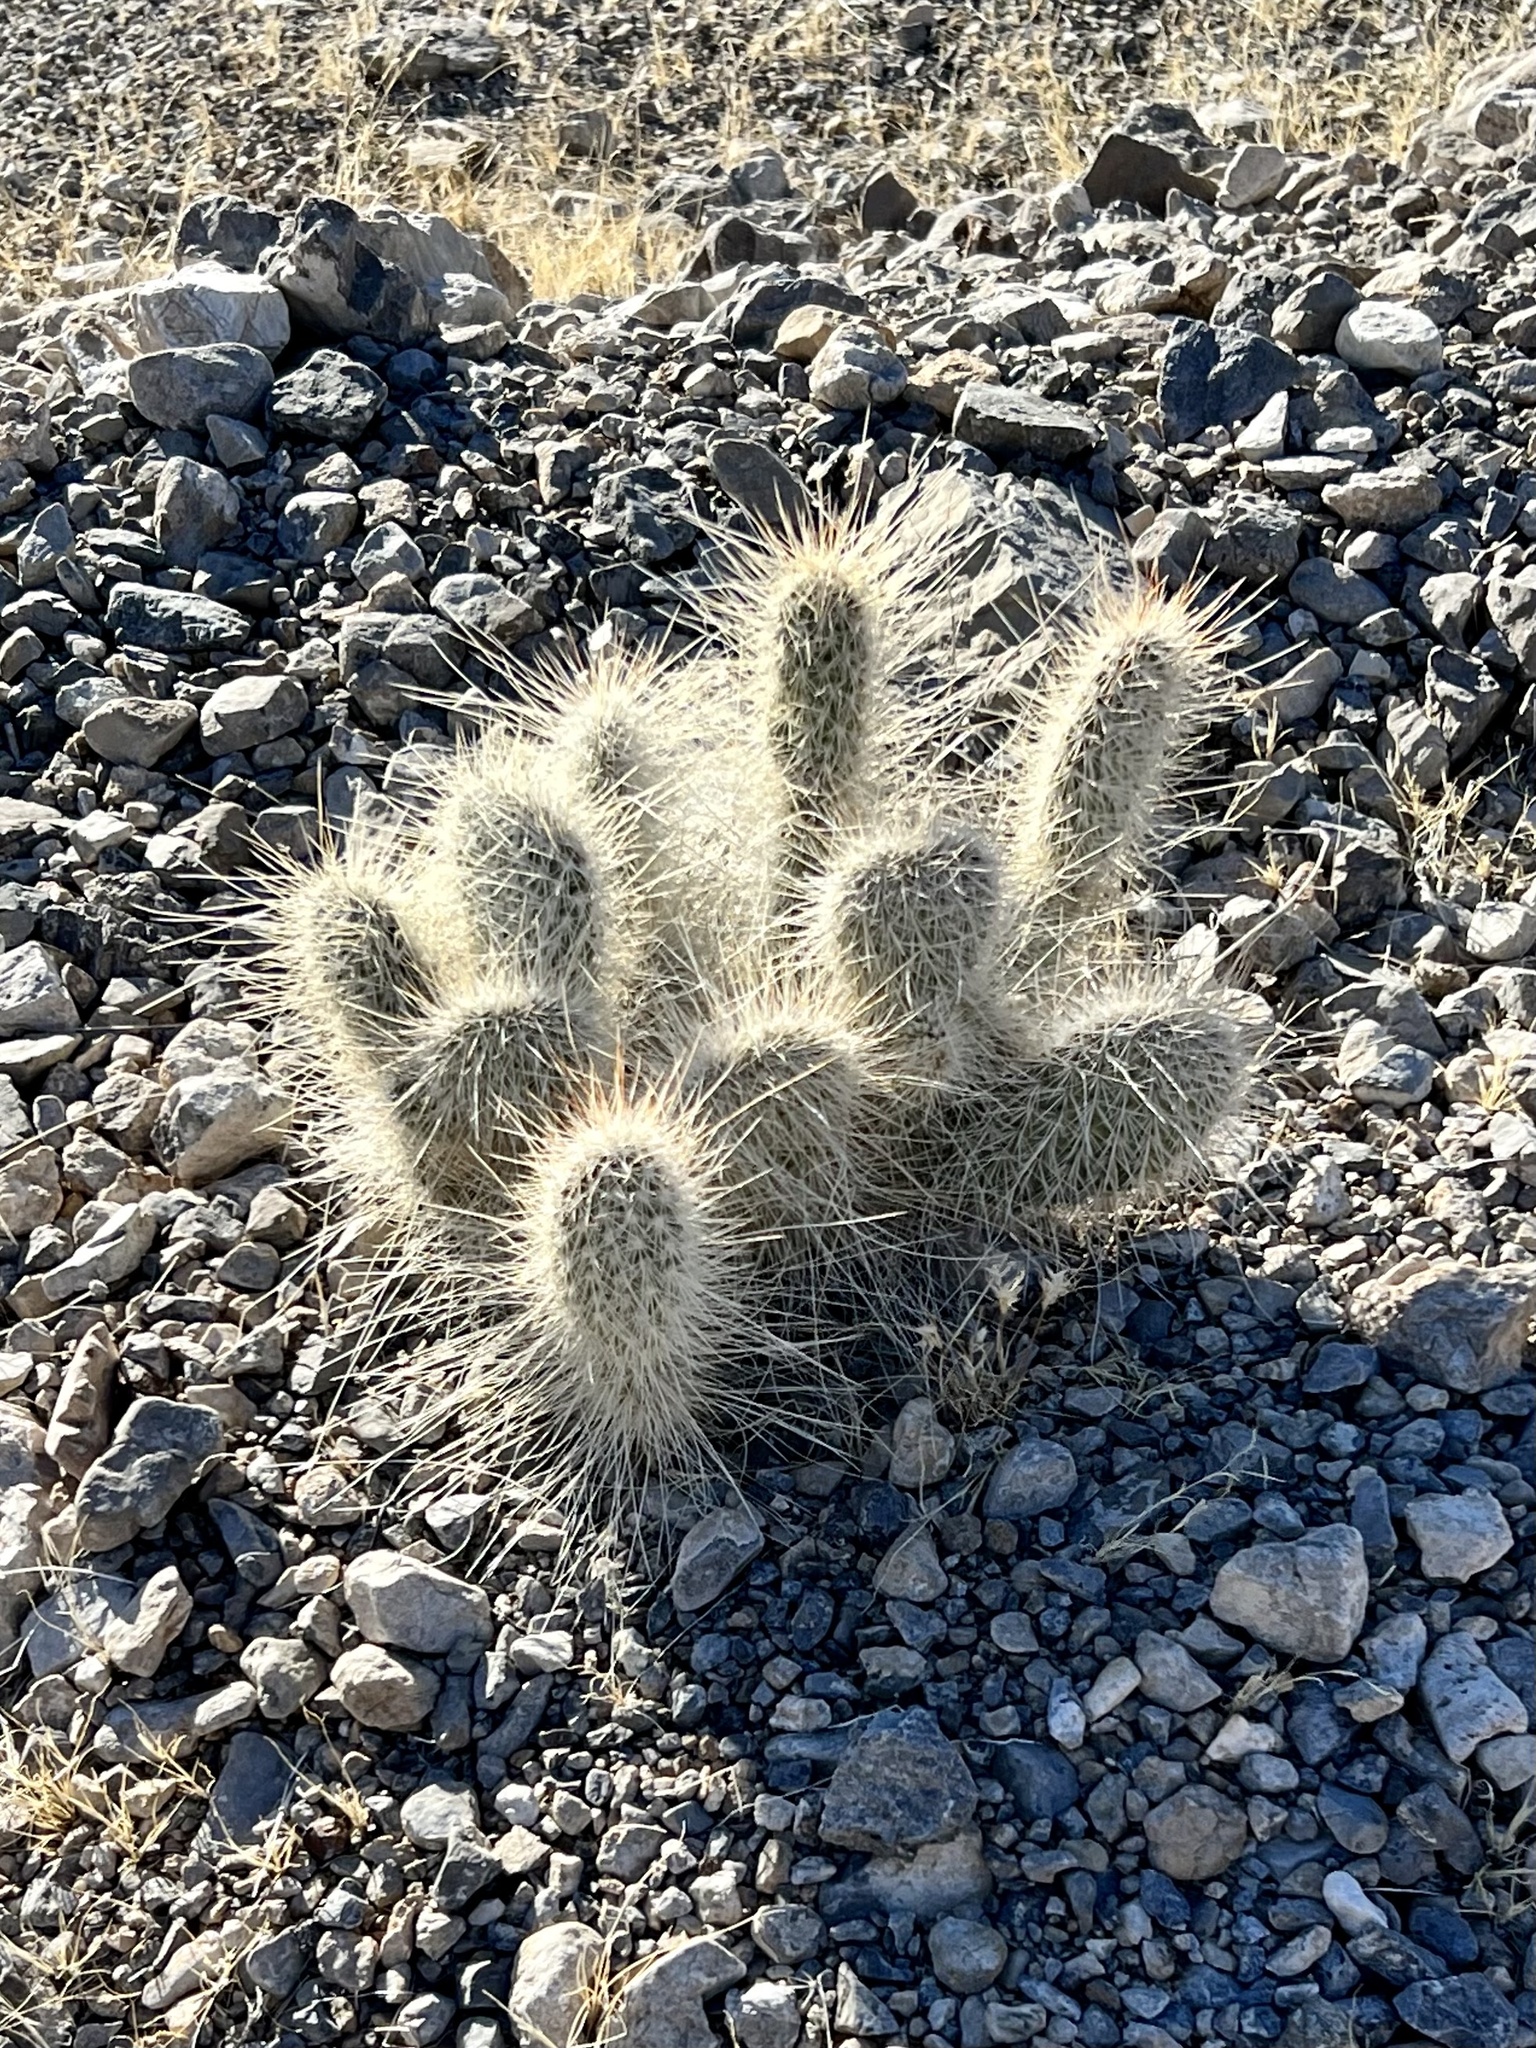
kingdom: Plantae
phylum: Tracheophyta
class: Magnoliopsida
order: Caryophyllales
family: Cactaceae
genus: Opuntia
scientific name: Opuntia polyacantha
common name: Plains prickly-pear
